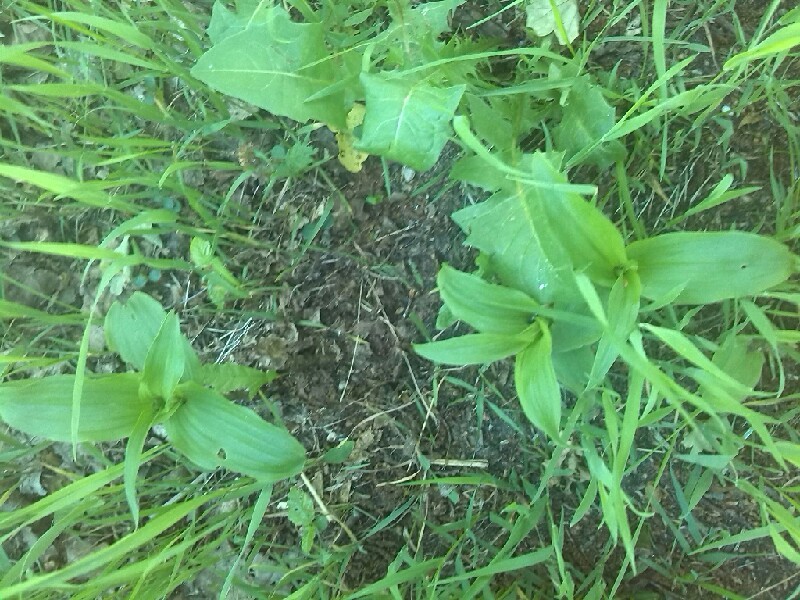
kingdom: Plantae
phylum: Tracheophyta
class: Liliopsida
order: Asparagales
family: Orchidaceae
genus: Epipactis
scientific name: Epipactis helleborine
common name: Broad-leaved helleborine
